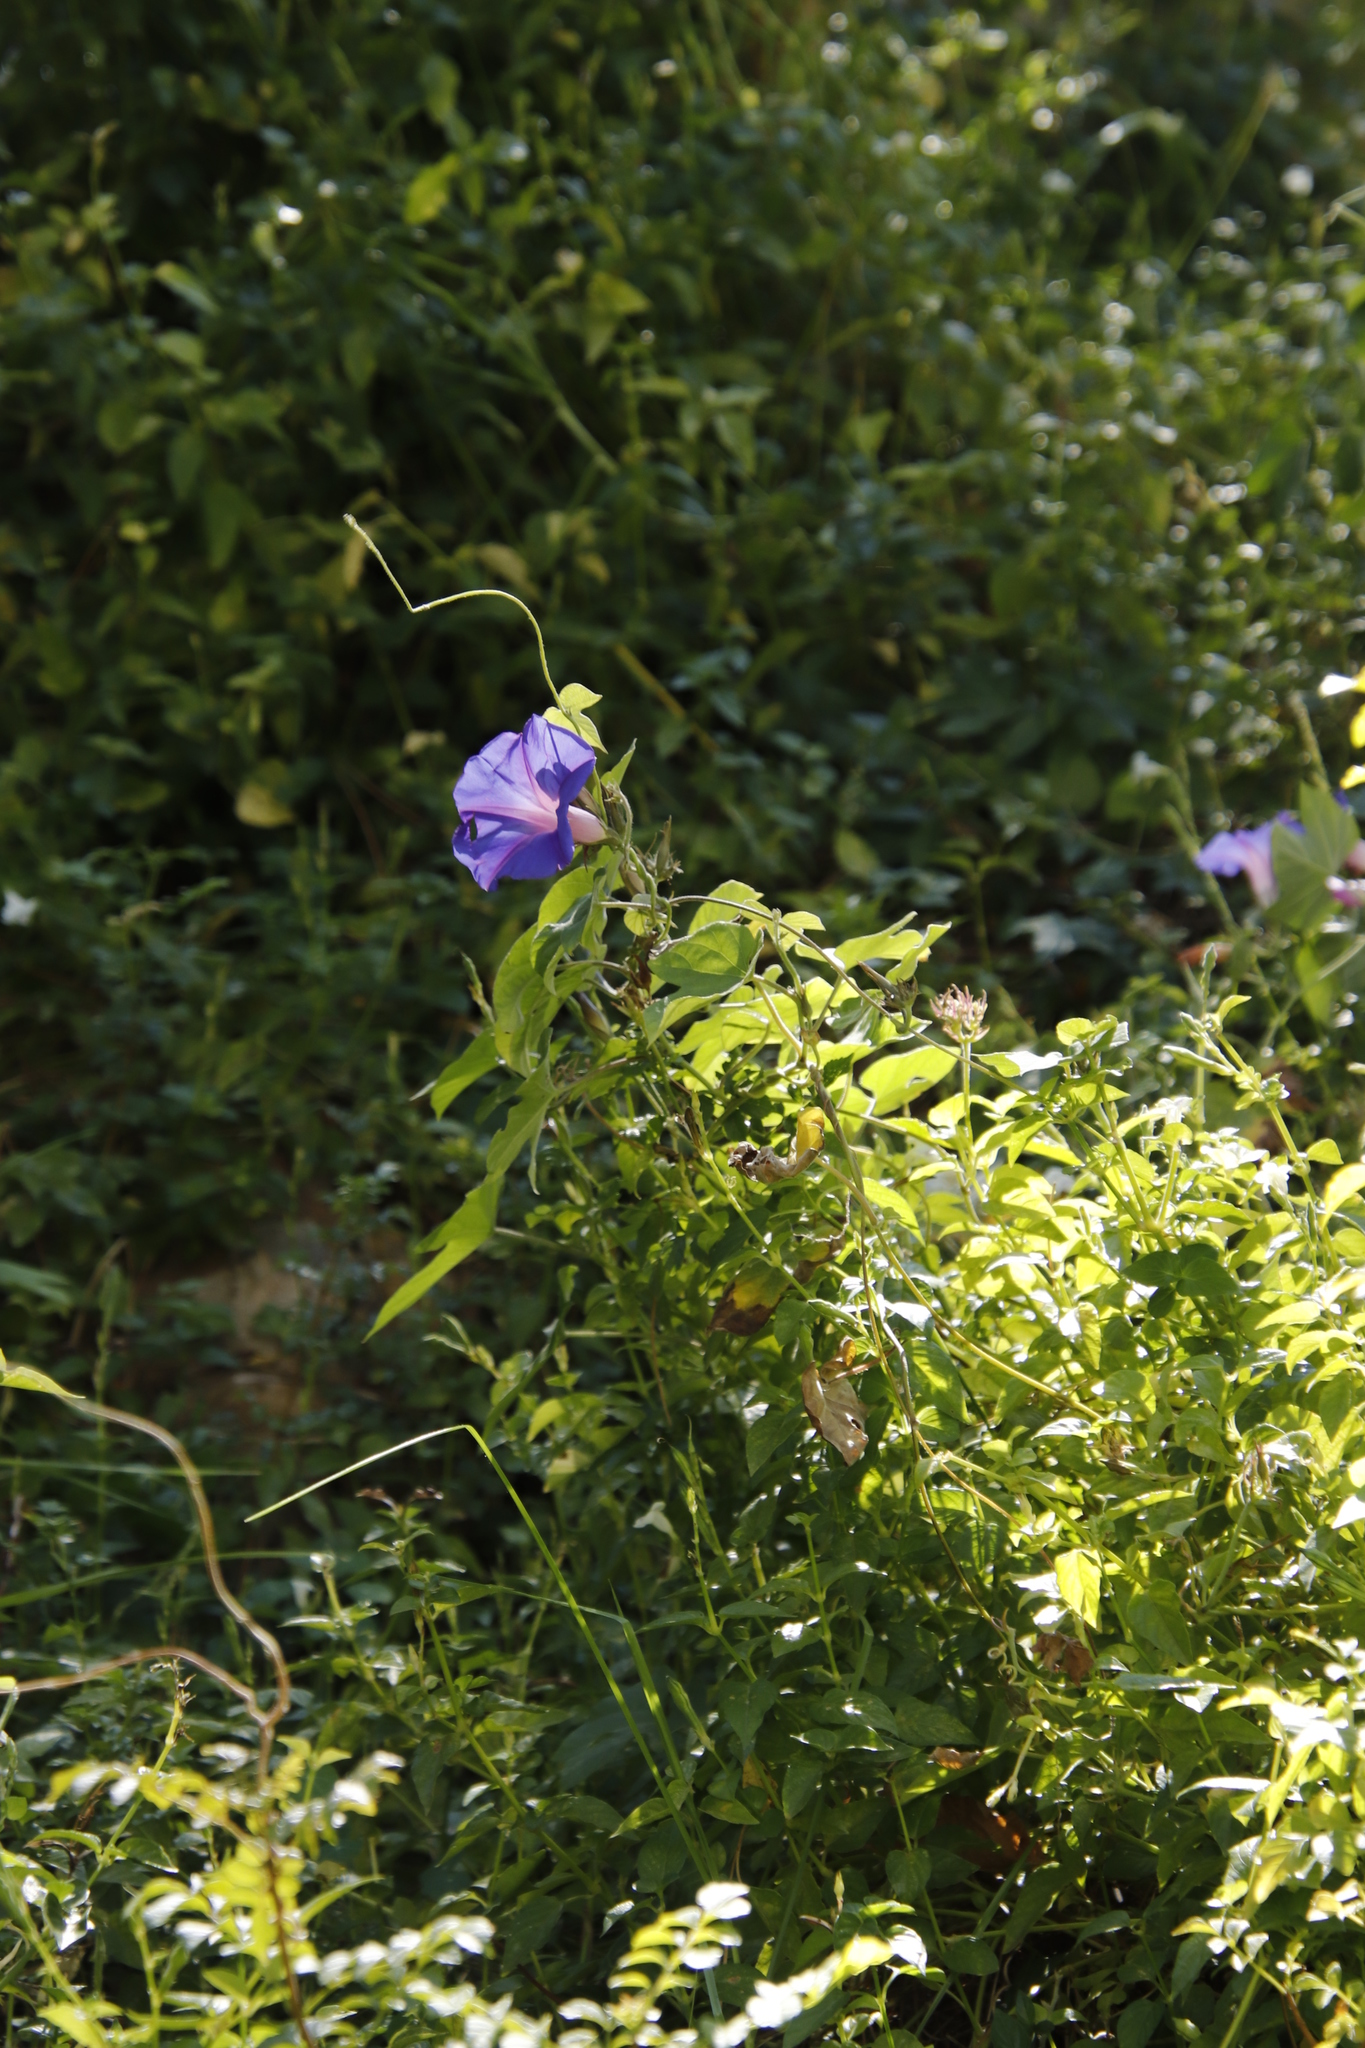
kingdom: Plantae
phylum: Tracheophyta
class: Magnoliopsida
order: Solanales
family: Convolvulaceae
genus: Ipomoea
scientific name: Ipomoea indica
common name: Blue dawnflower
